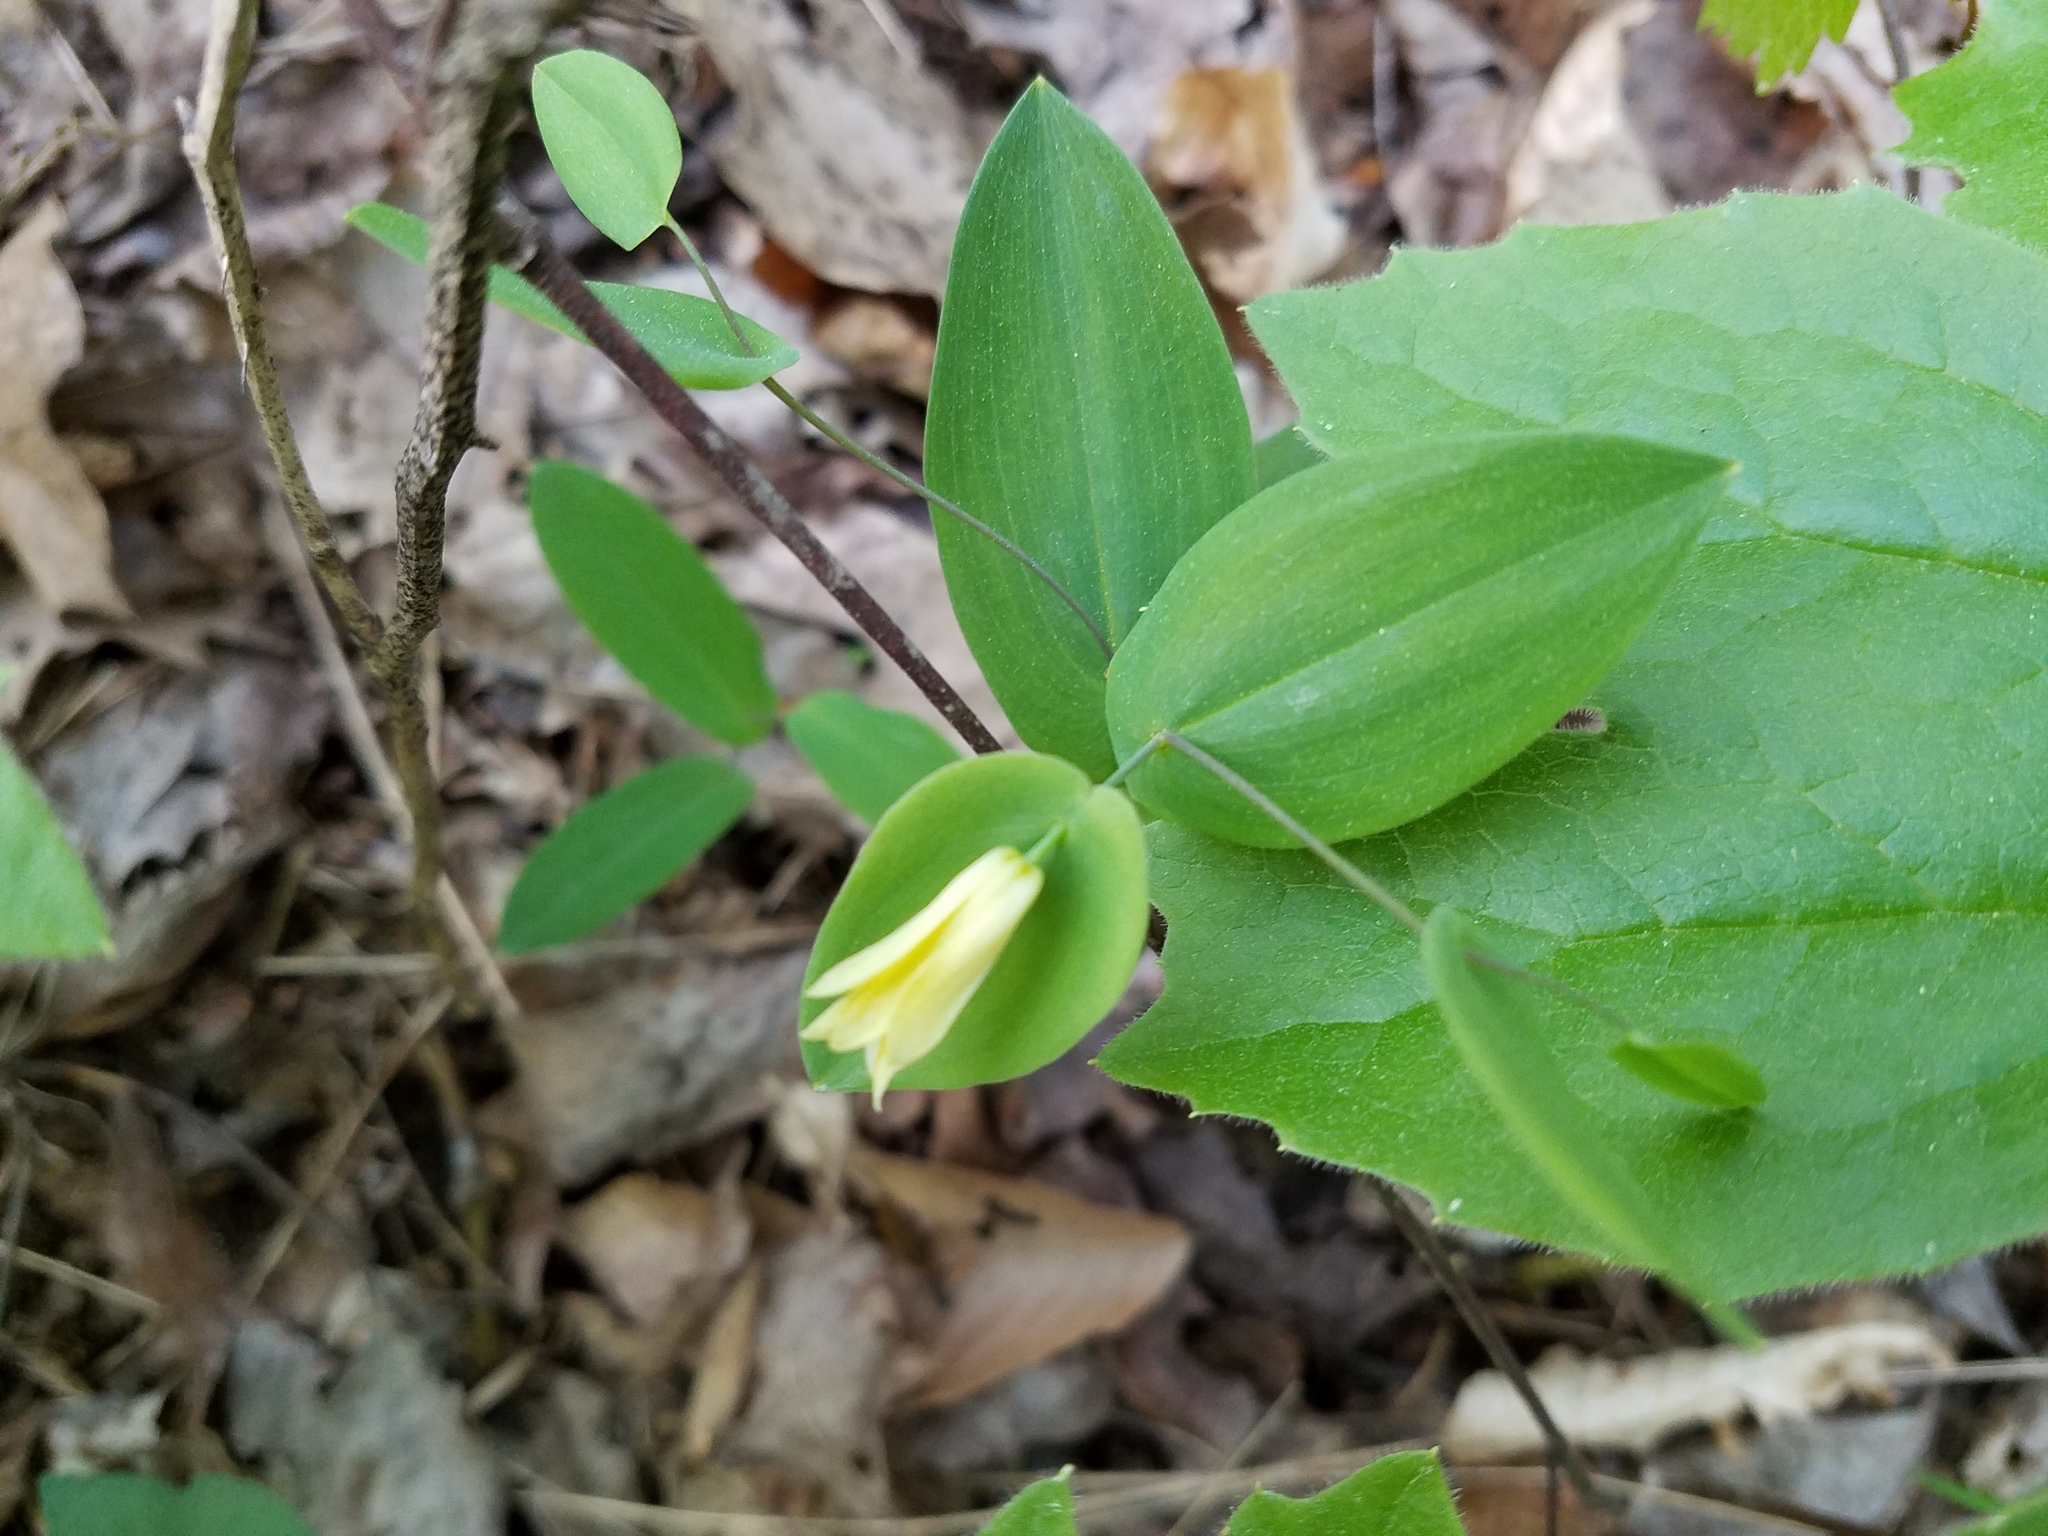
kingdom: Plantae
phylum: Tracheophyta
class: Liliopsida
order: Liliales
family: Colchicaceae
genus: Uvularia
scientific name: Uvularia perfoliata
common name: Perfoliate bellwort
